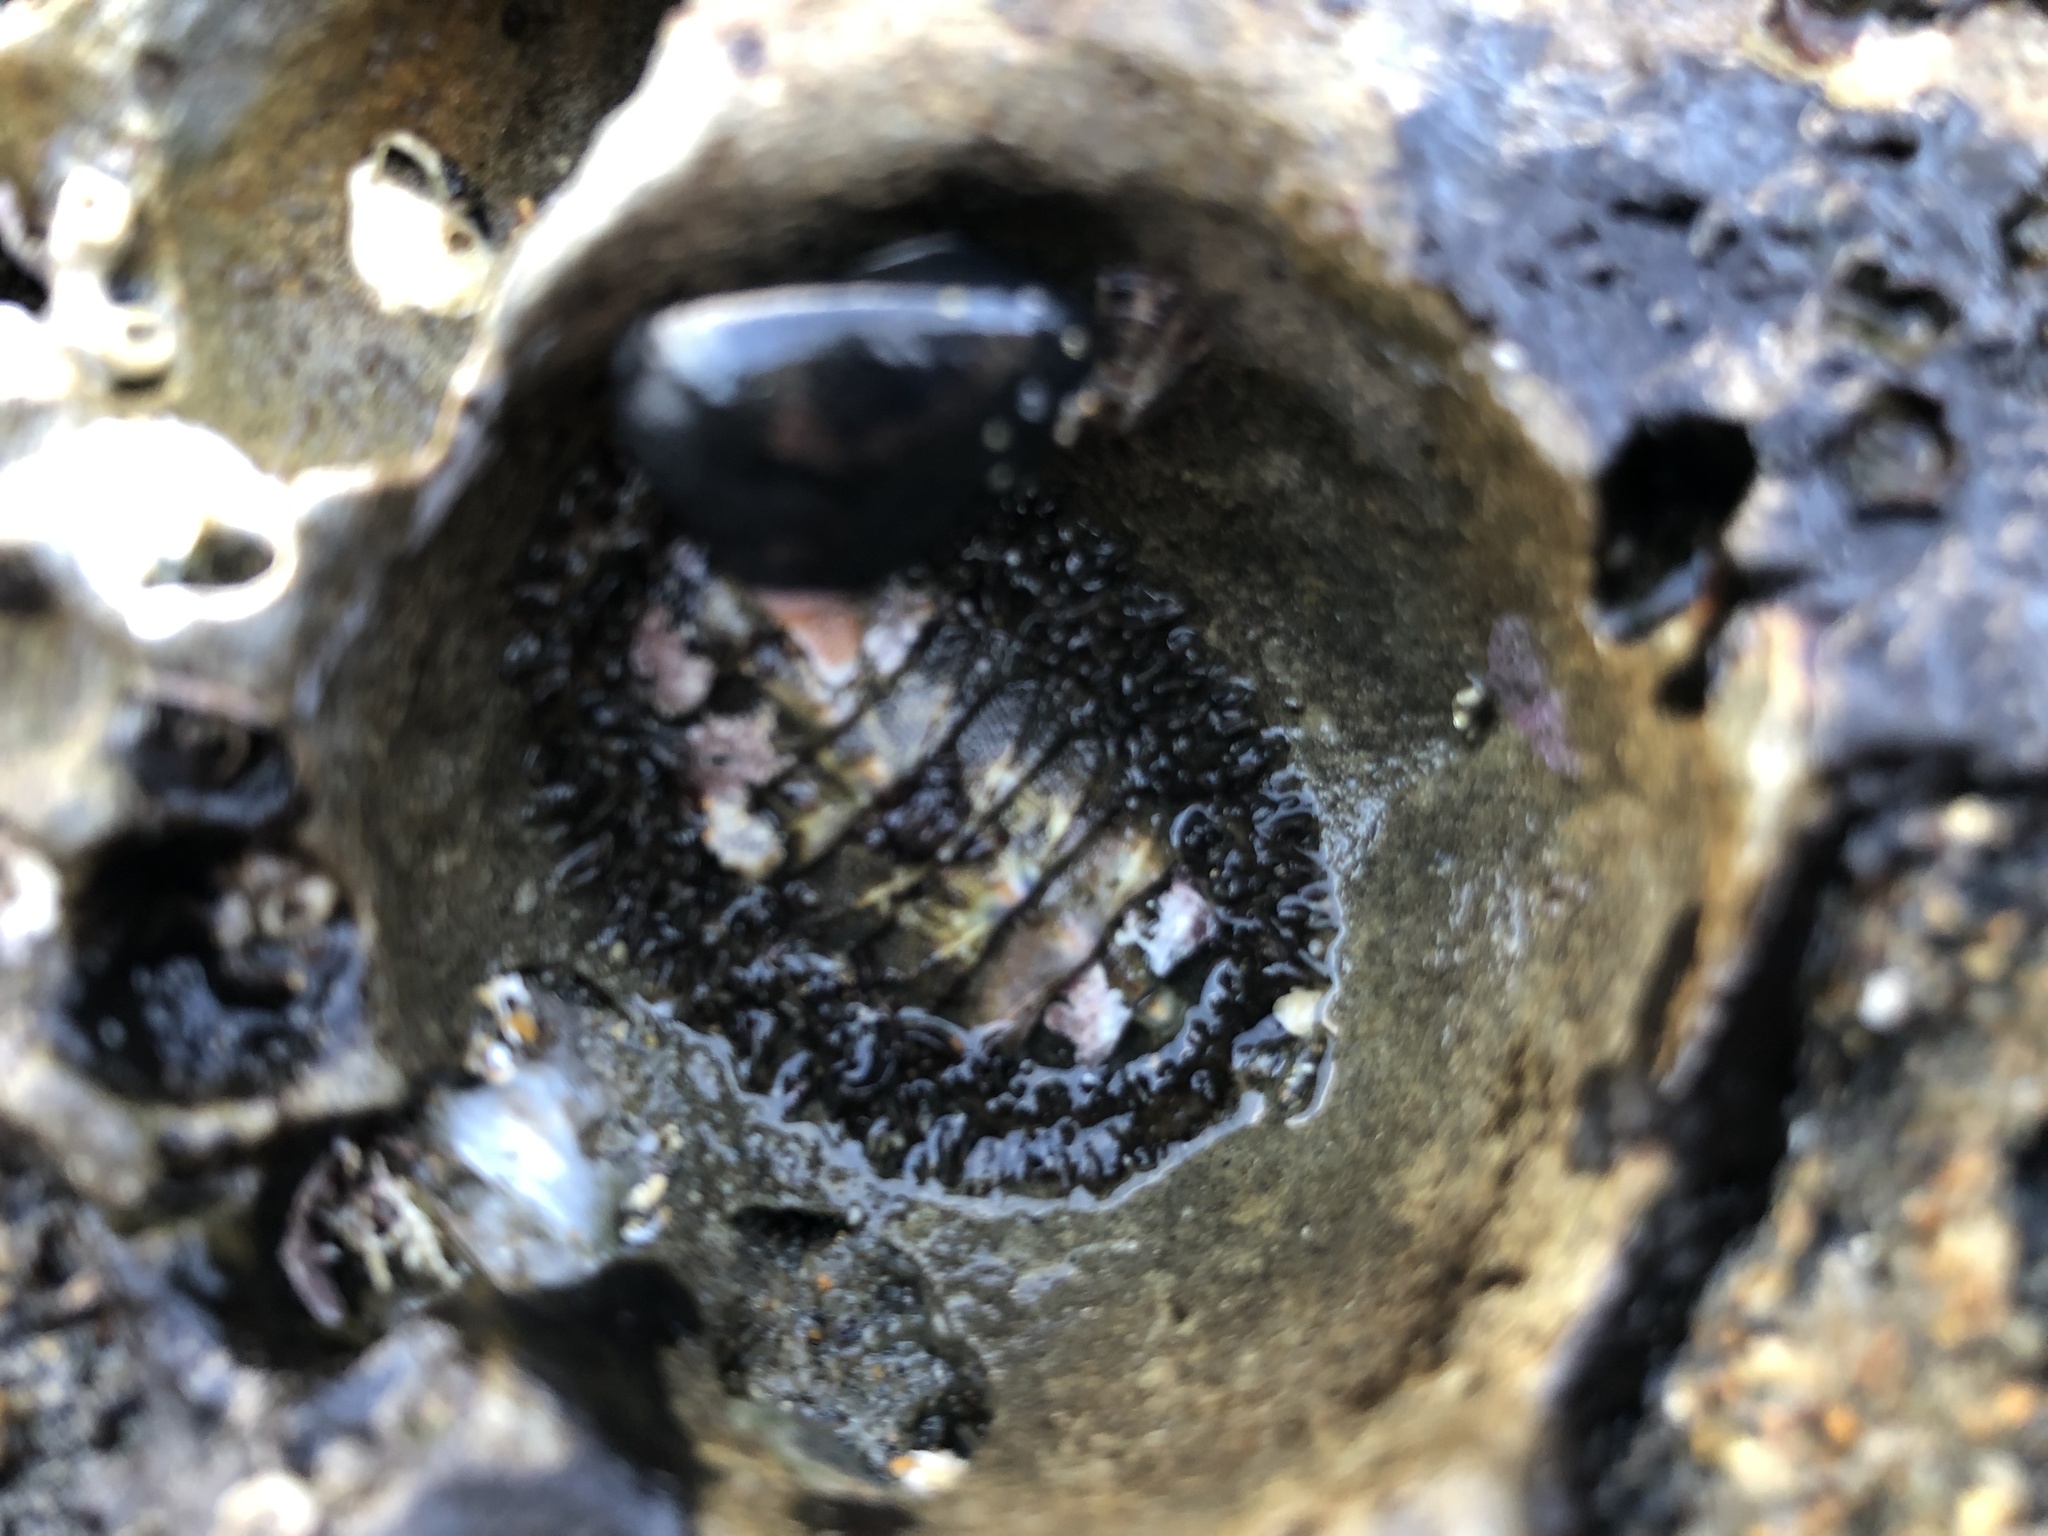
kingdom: Animalia
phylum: Mollusca
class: Polyplacophora
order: Chitonida
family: Mopaliidae
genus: Mopalia
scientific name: Mopalia muscosa
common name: Mossy chiton
